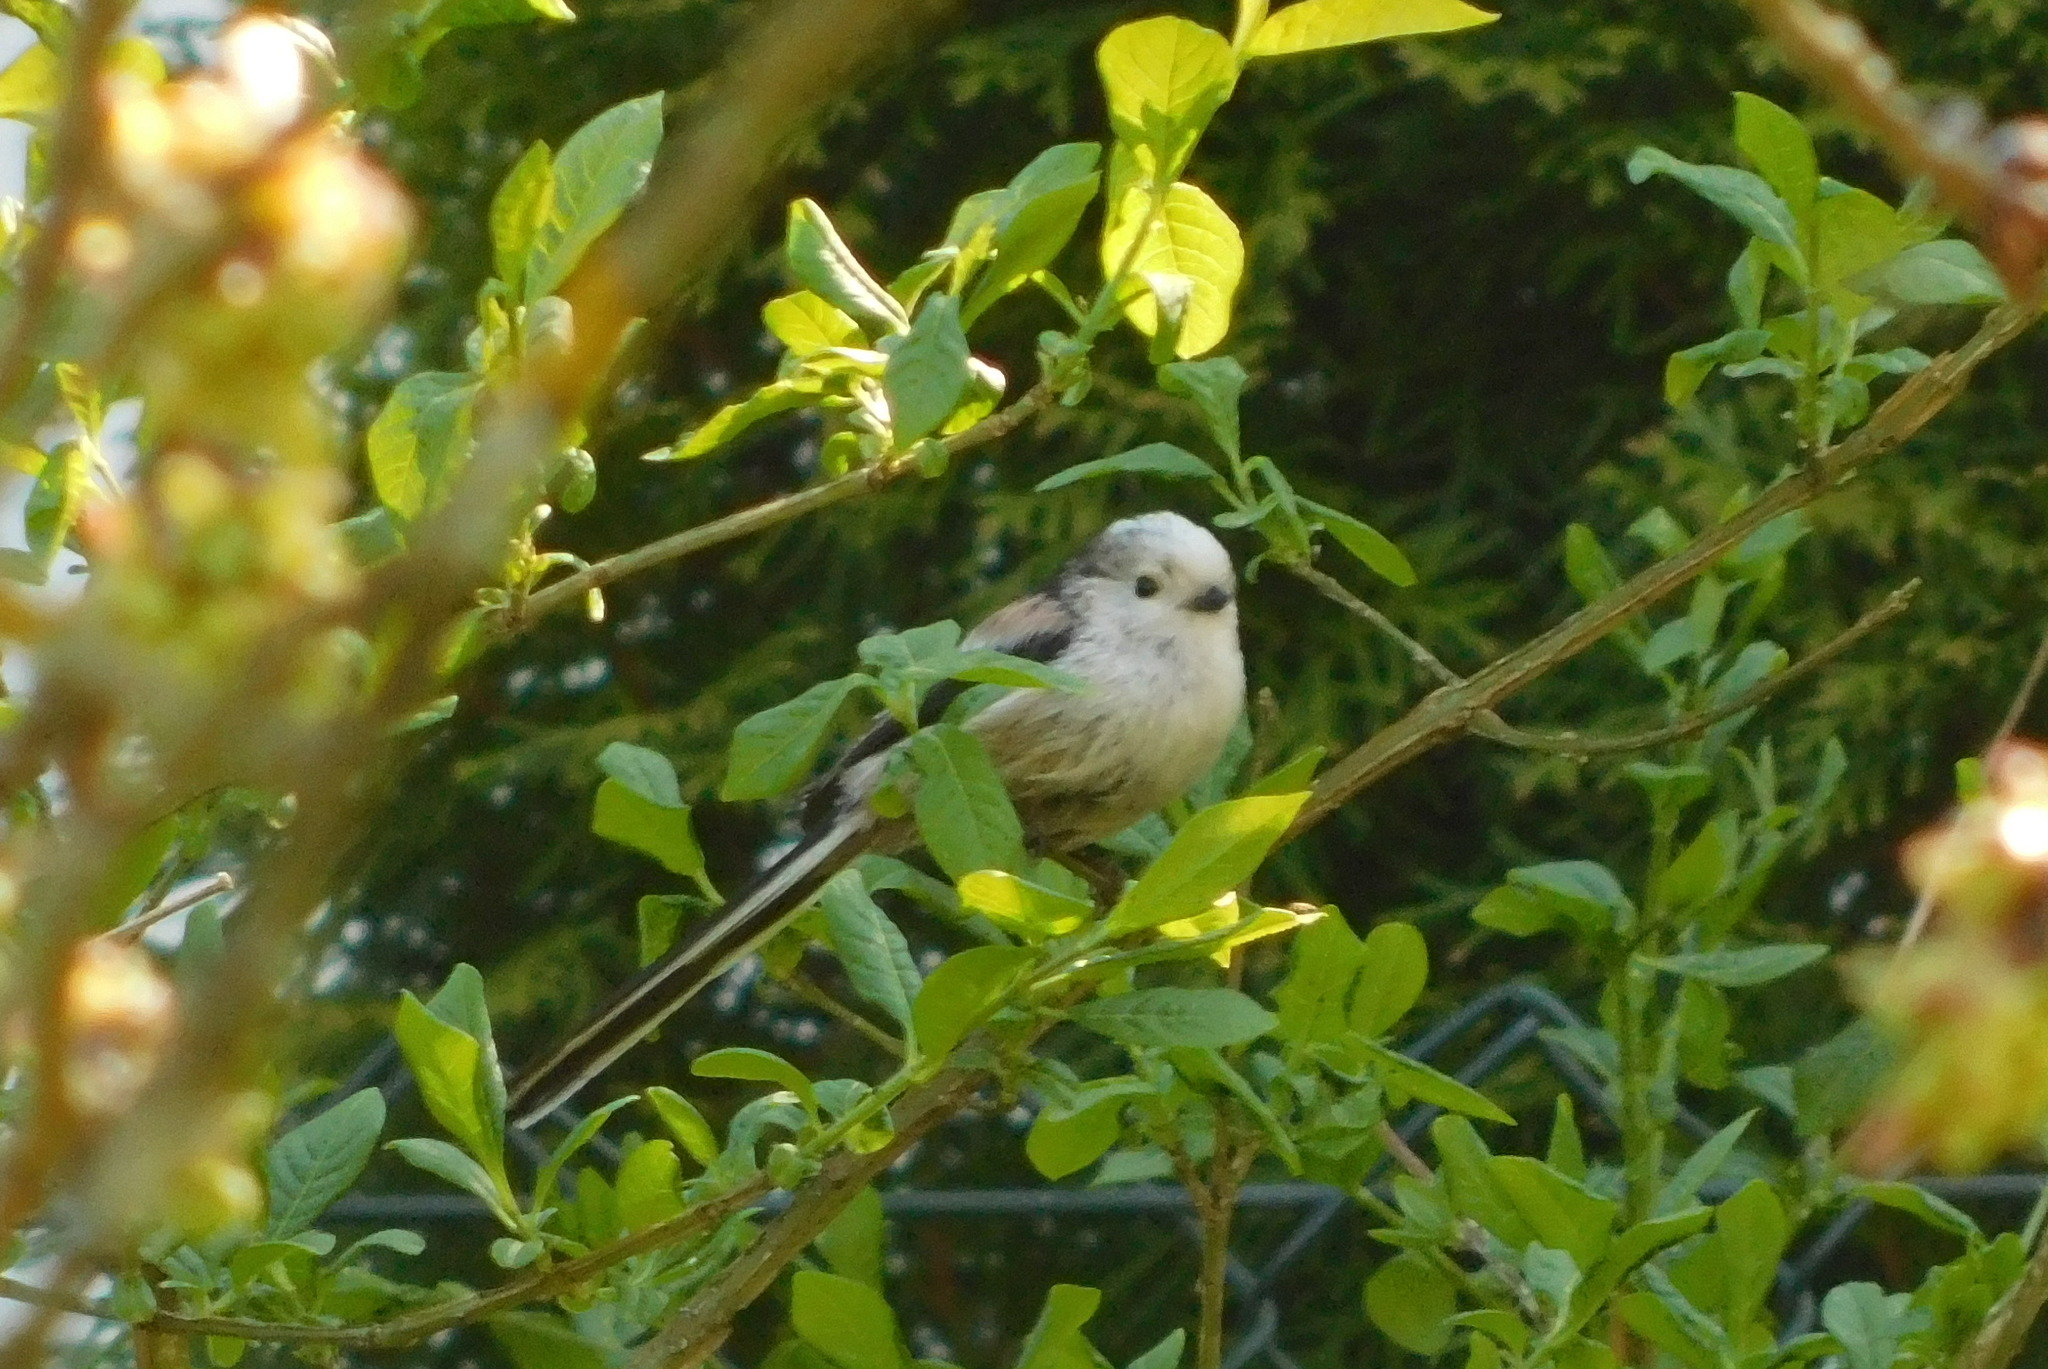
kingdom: Animalia
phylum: Chordata
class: Aves
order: Passeriformes
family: Aegithalidae
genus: Aegithalos
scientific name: Aegithalos caudatus
